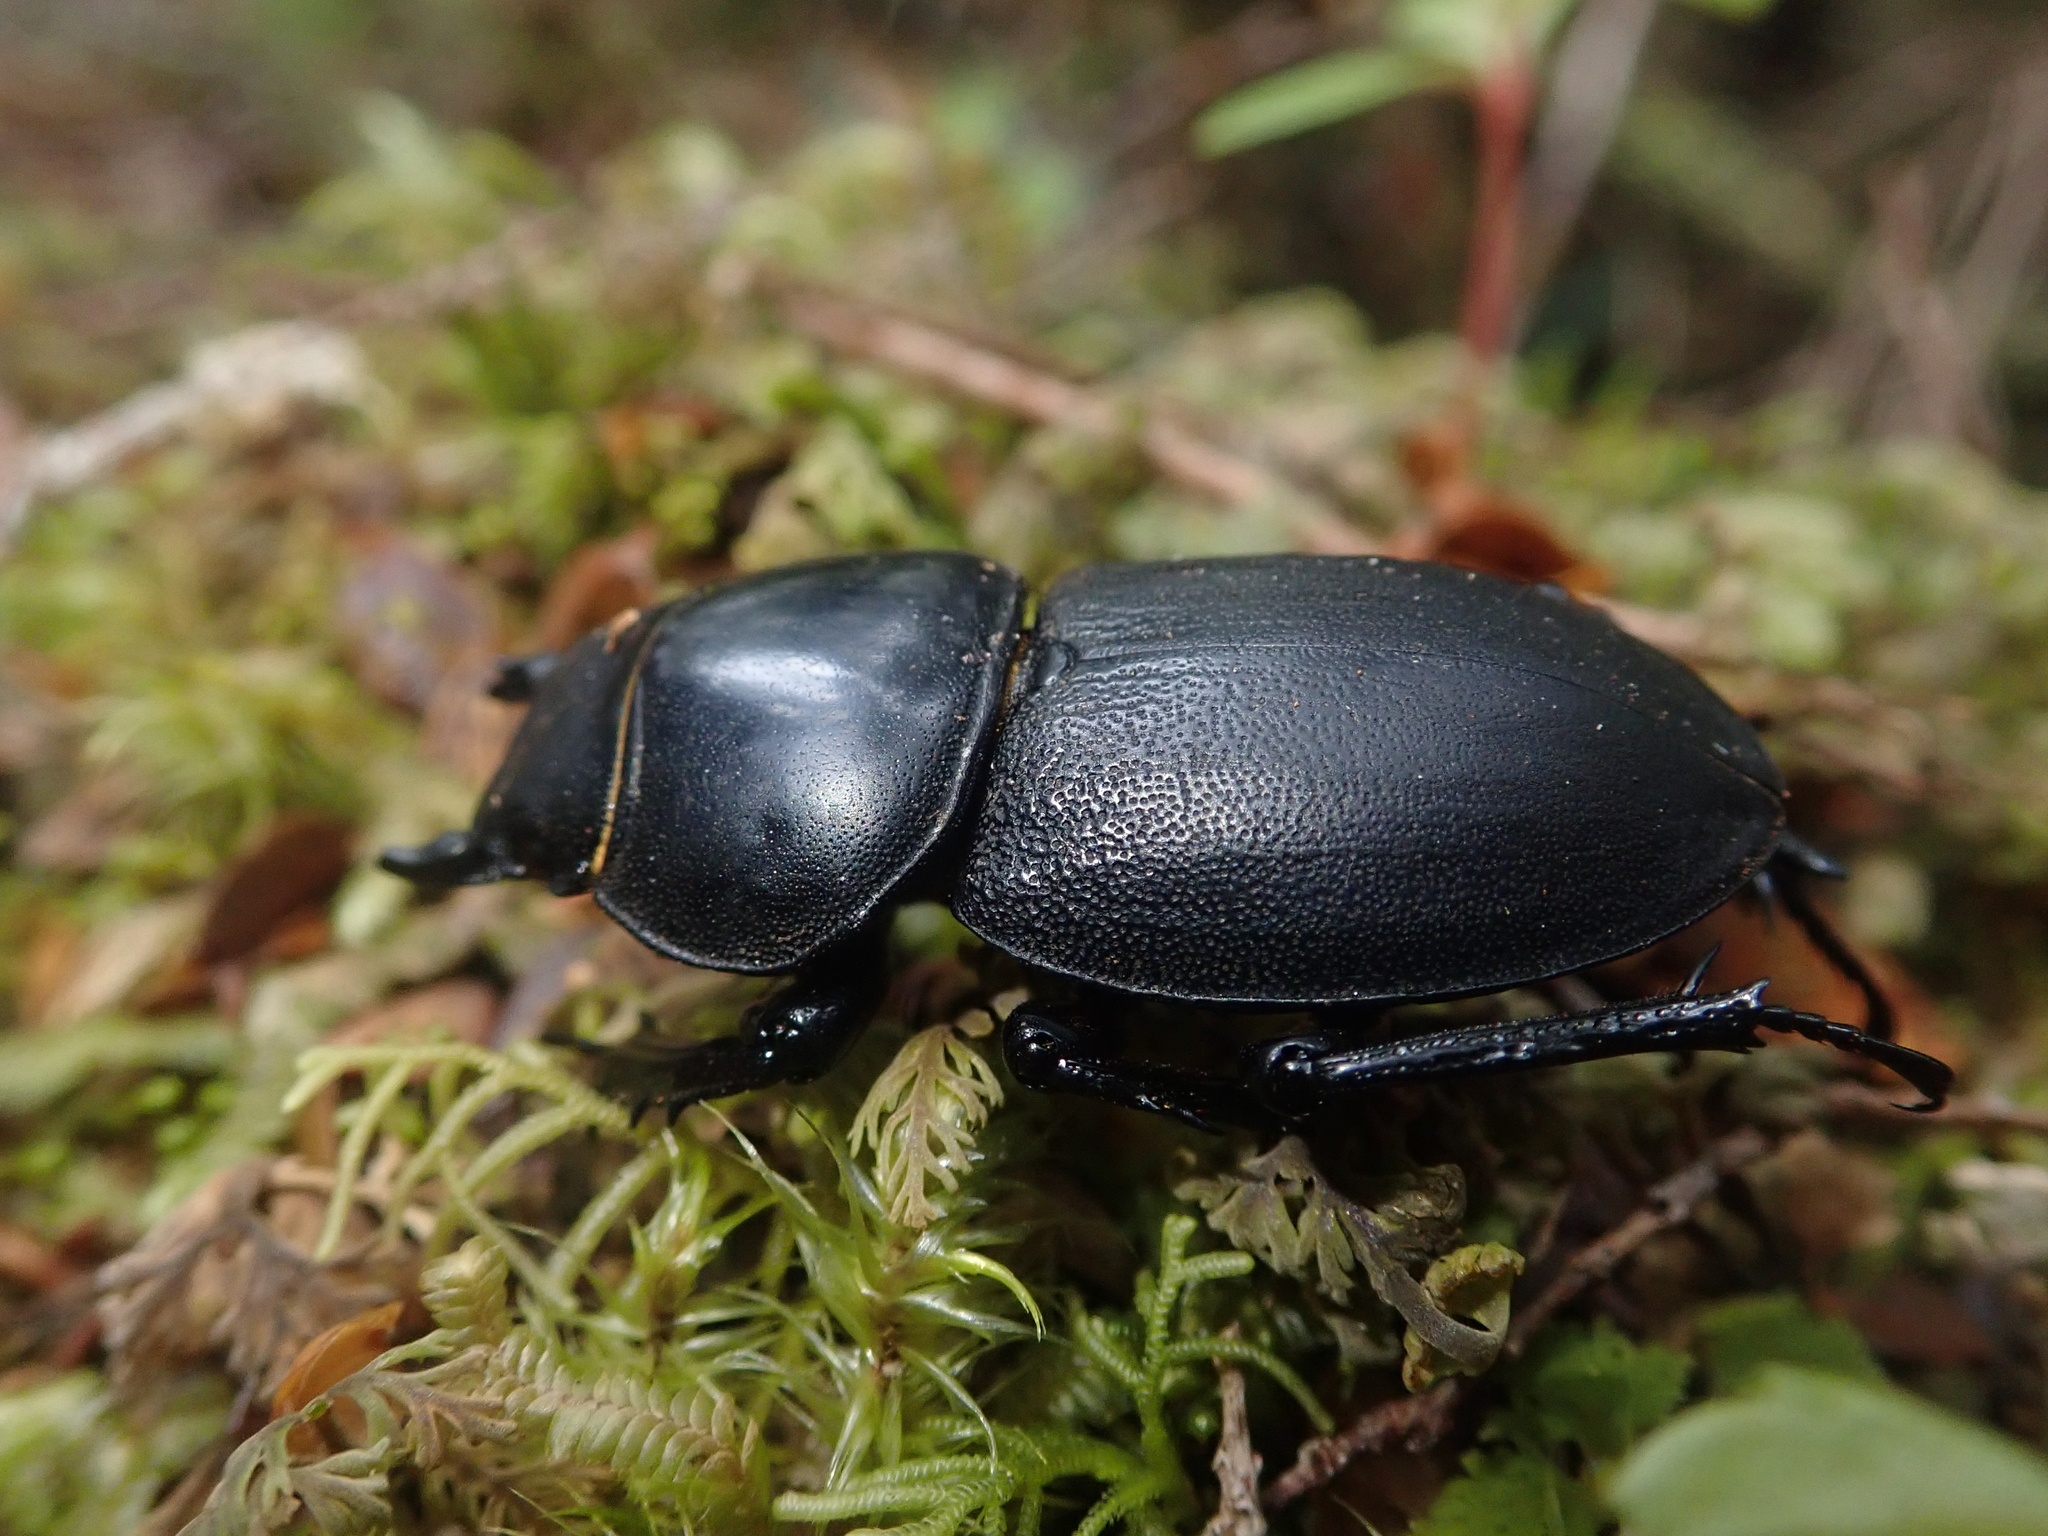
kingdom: Animalia
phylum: Arthropoda
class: Insecta
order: Coleoptera
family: Lucanidae
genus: Apterodorcus
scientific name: Apterodorcus bacchus
